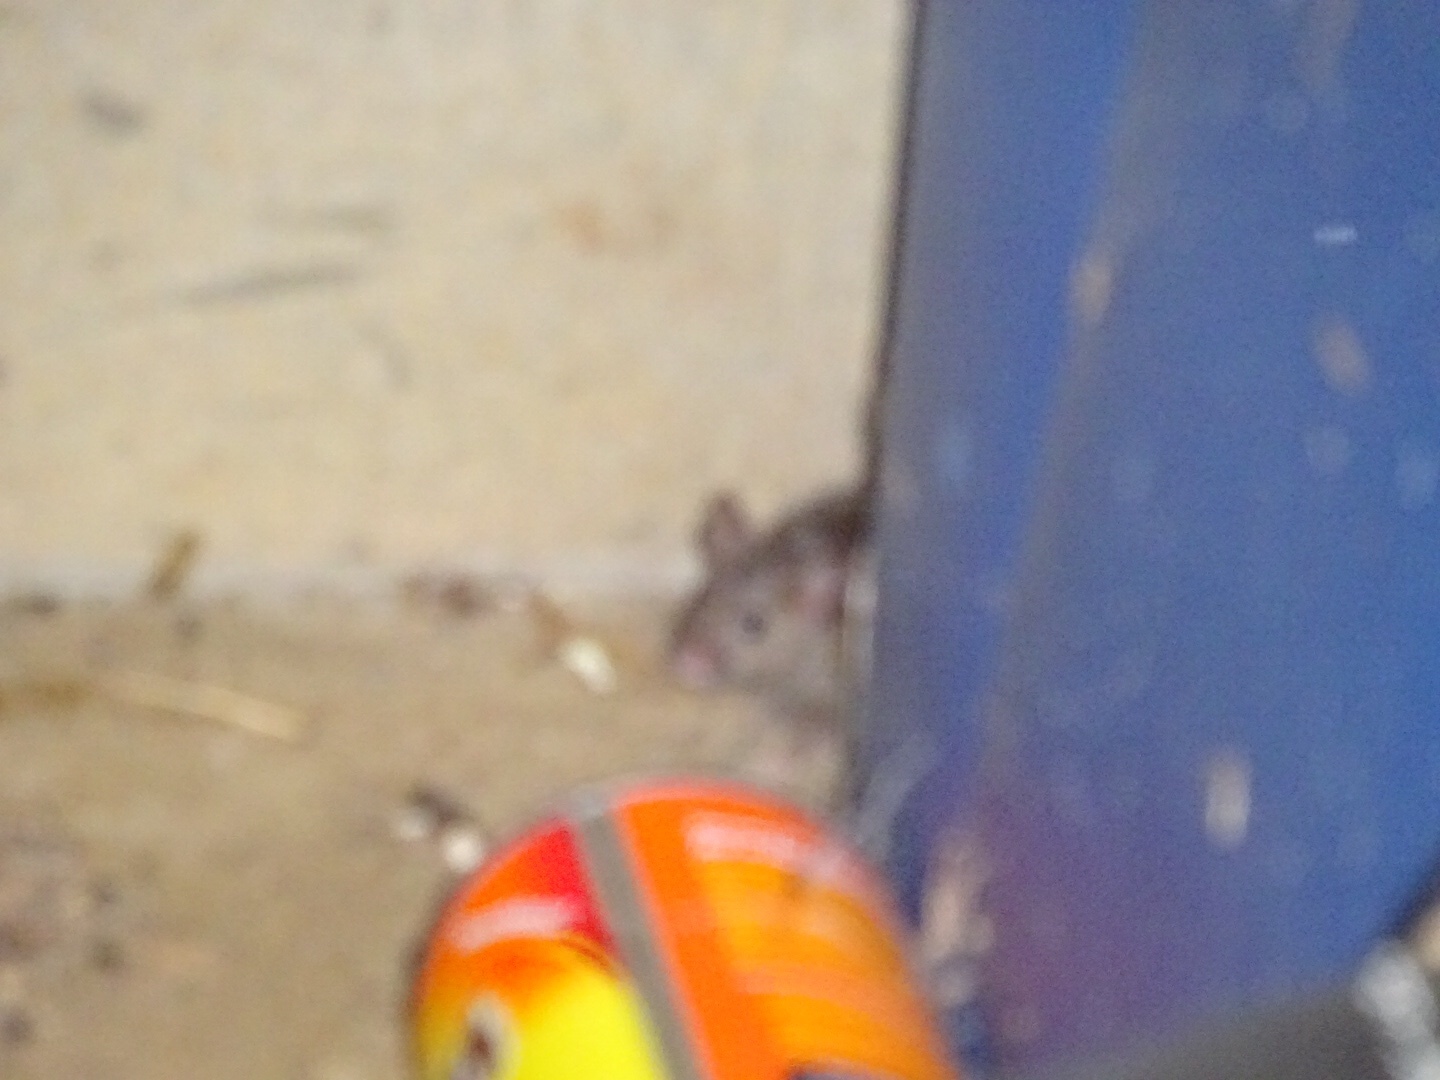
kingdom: Animalia
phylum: Chordata
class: Mammalia
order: Rodentia
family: Muridae
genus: Mus
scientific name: Mus musculus
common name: House mouse
